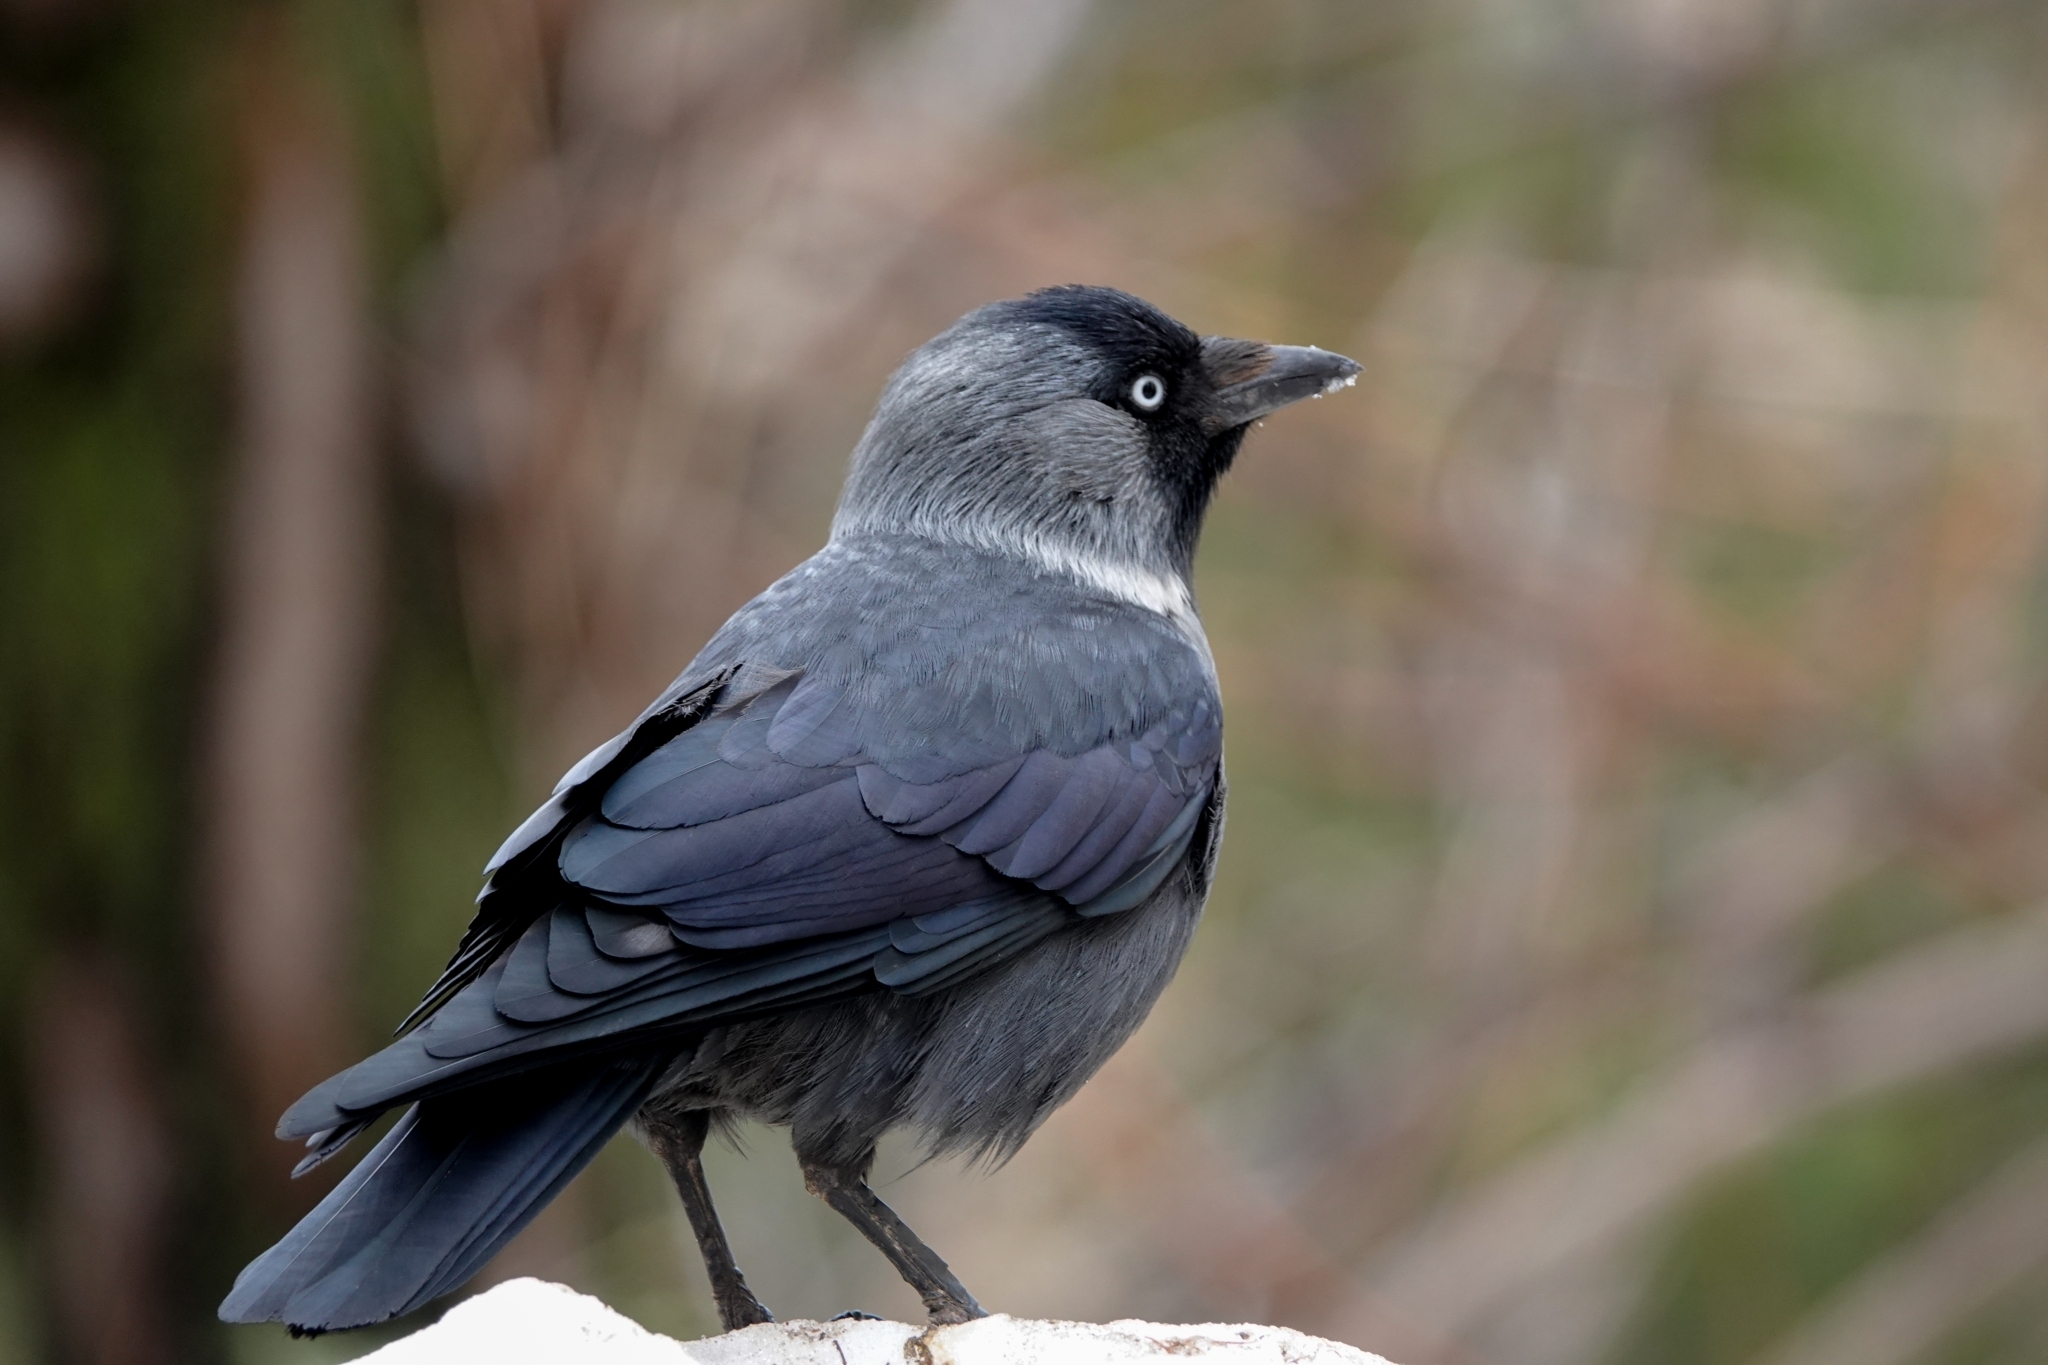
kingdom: Animalia
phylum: Chordata
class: Aves
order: Passeriformes
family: Corvidae
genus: Coloeus
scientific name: Coloeus monedula
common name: Western jackdaw
